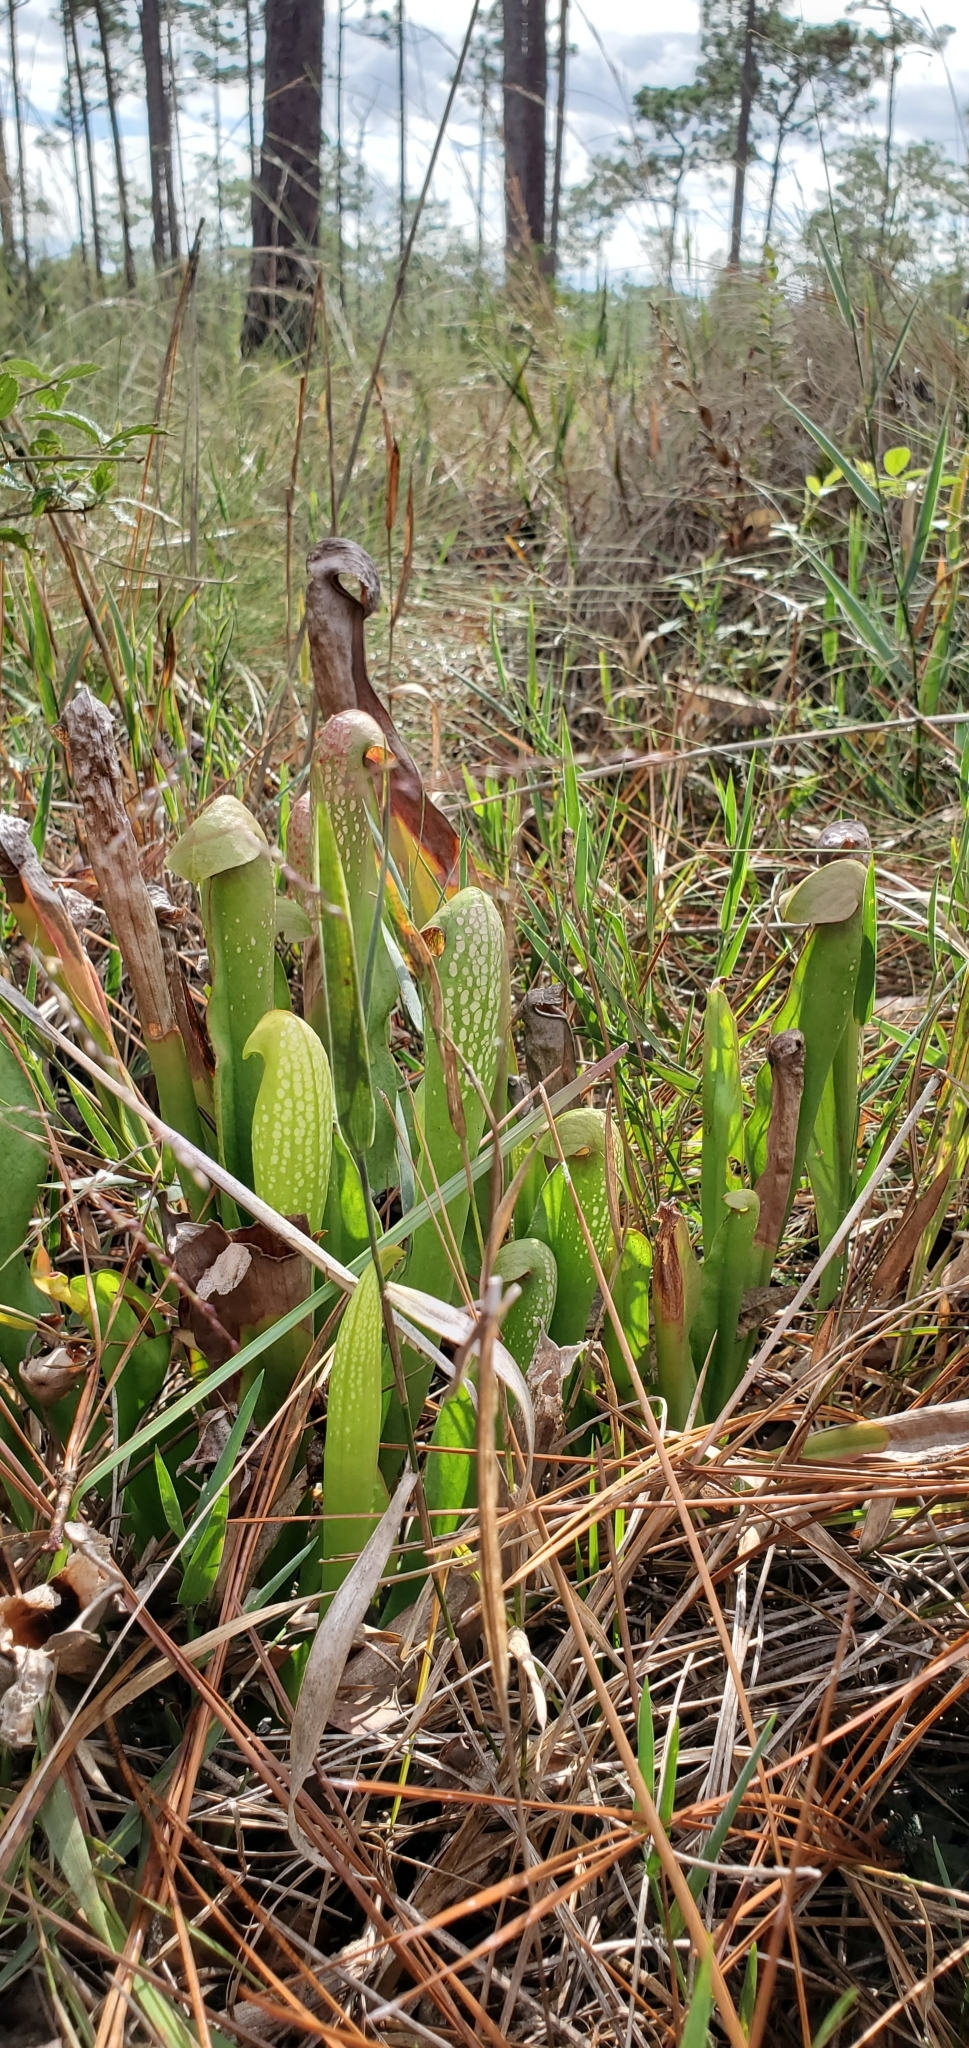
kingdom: Plantae
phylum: Tracheophyta
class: Magnoliopsida
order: Ericales
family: Sarraceniaceae
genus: Sarracenia
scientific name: Sarracenia minor
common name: Rainhat-trumpet
